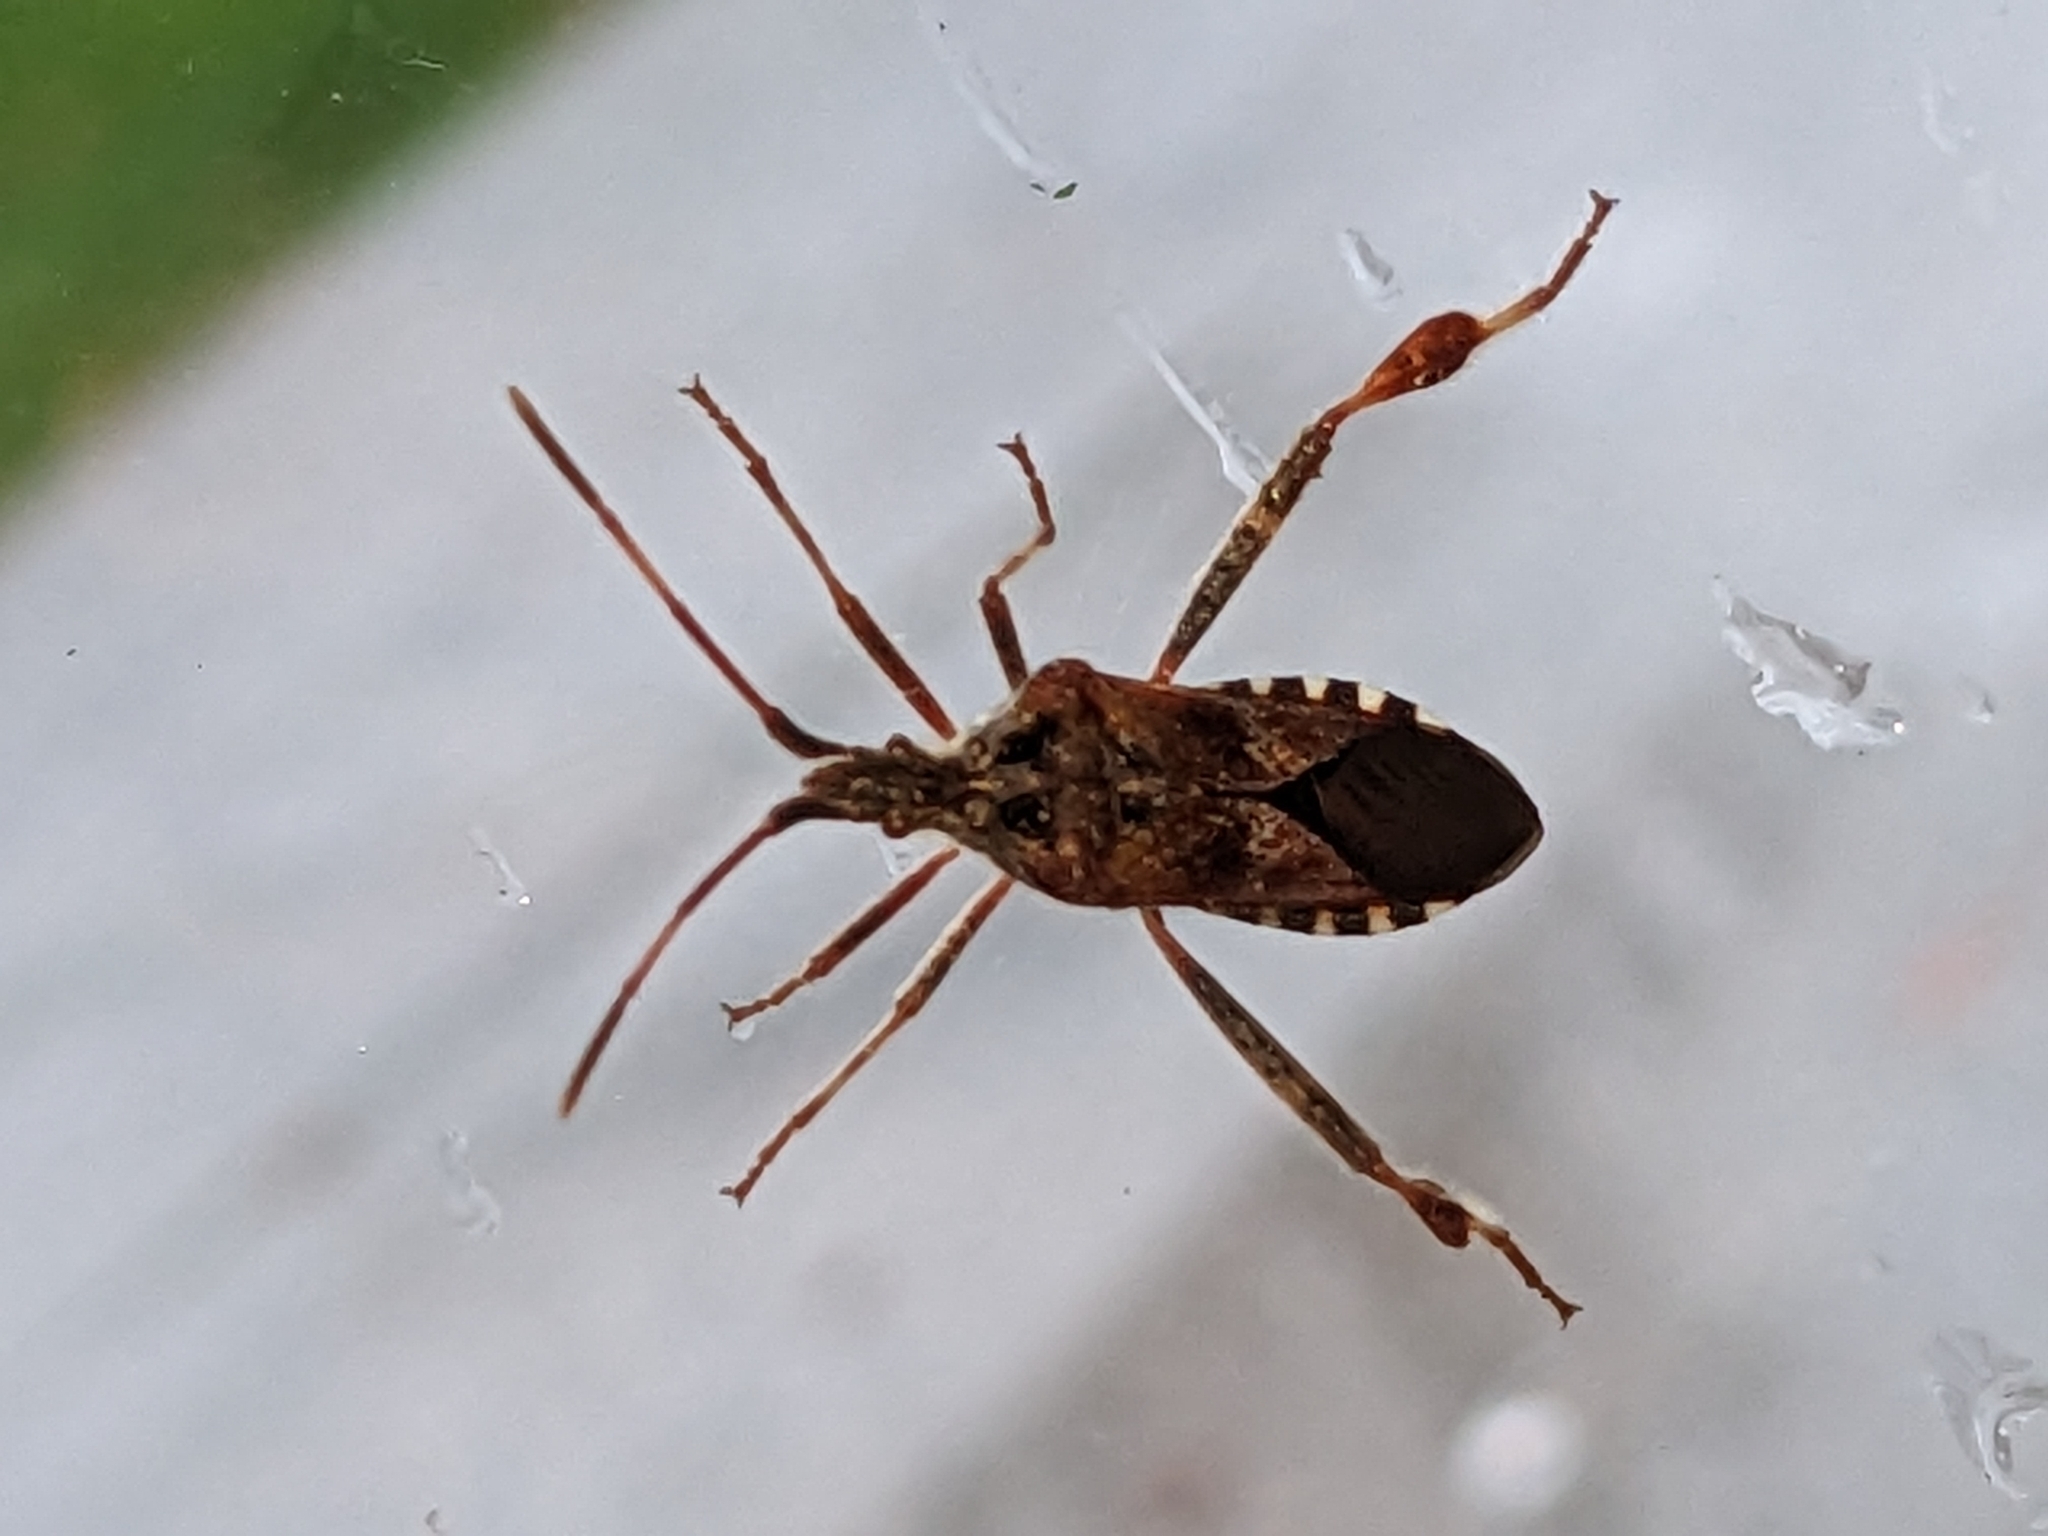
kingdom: Animalia
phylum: Arthropoda
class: Insecta
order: Hemiptera
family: Coreidae
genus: Leptoglossus
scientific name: Leptoglossus occidentalis
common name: Western conifer-seed bug
